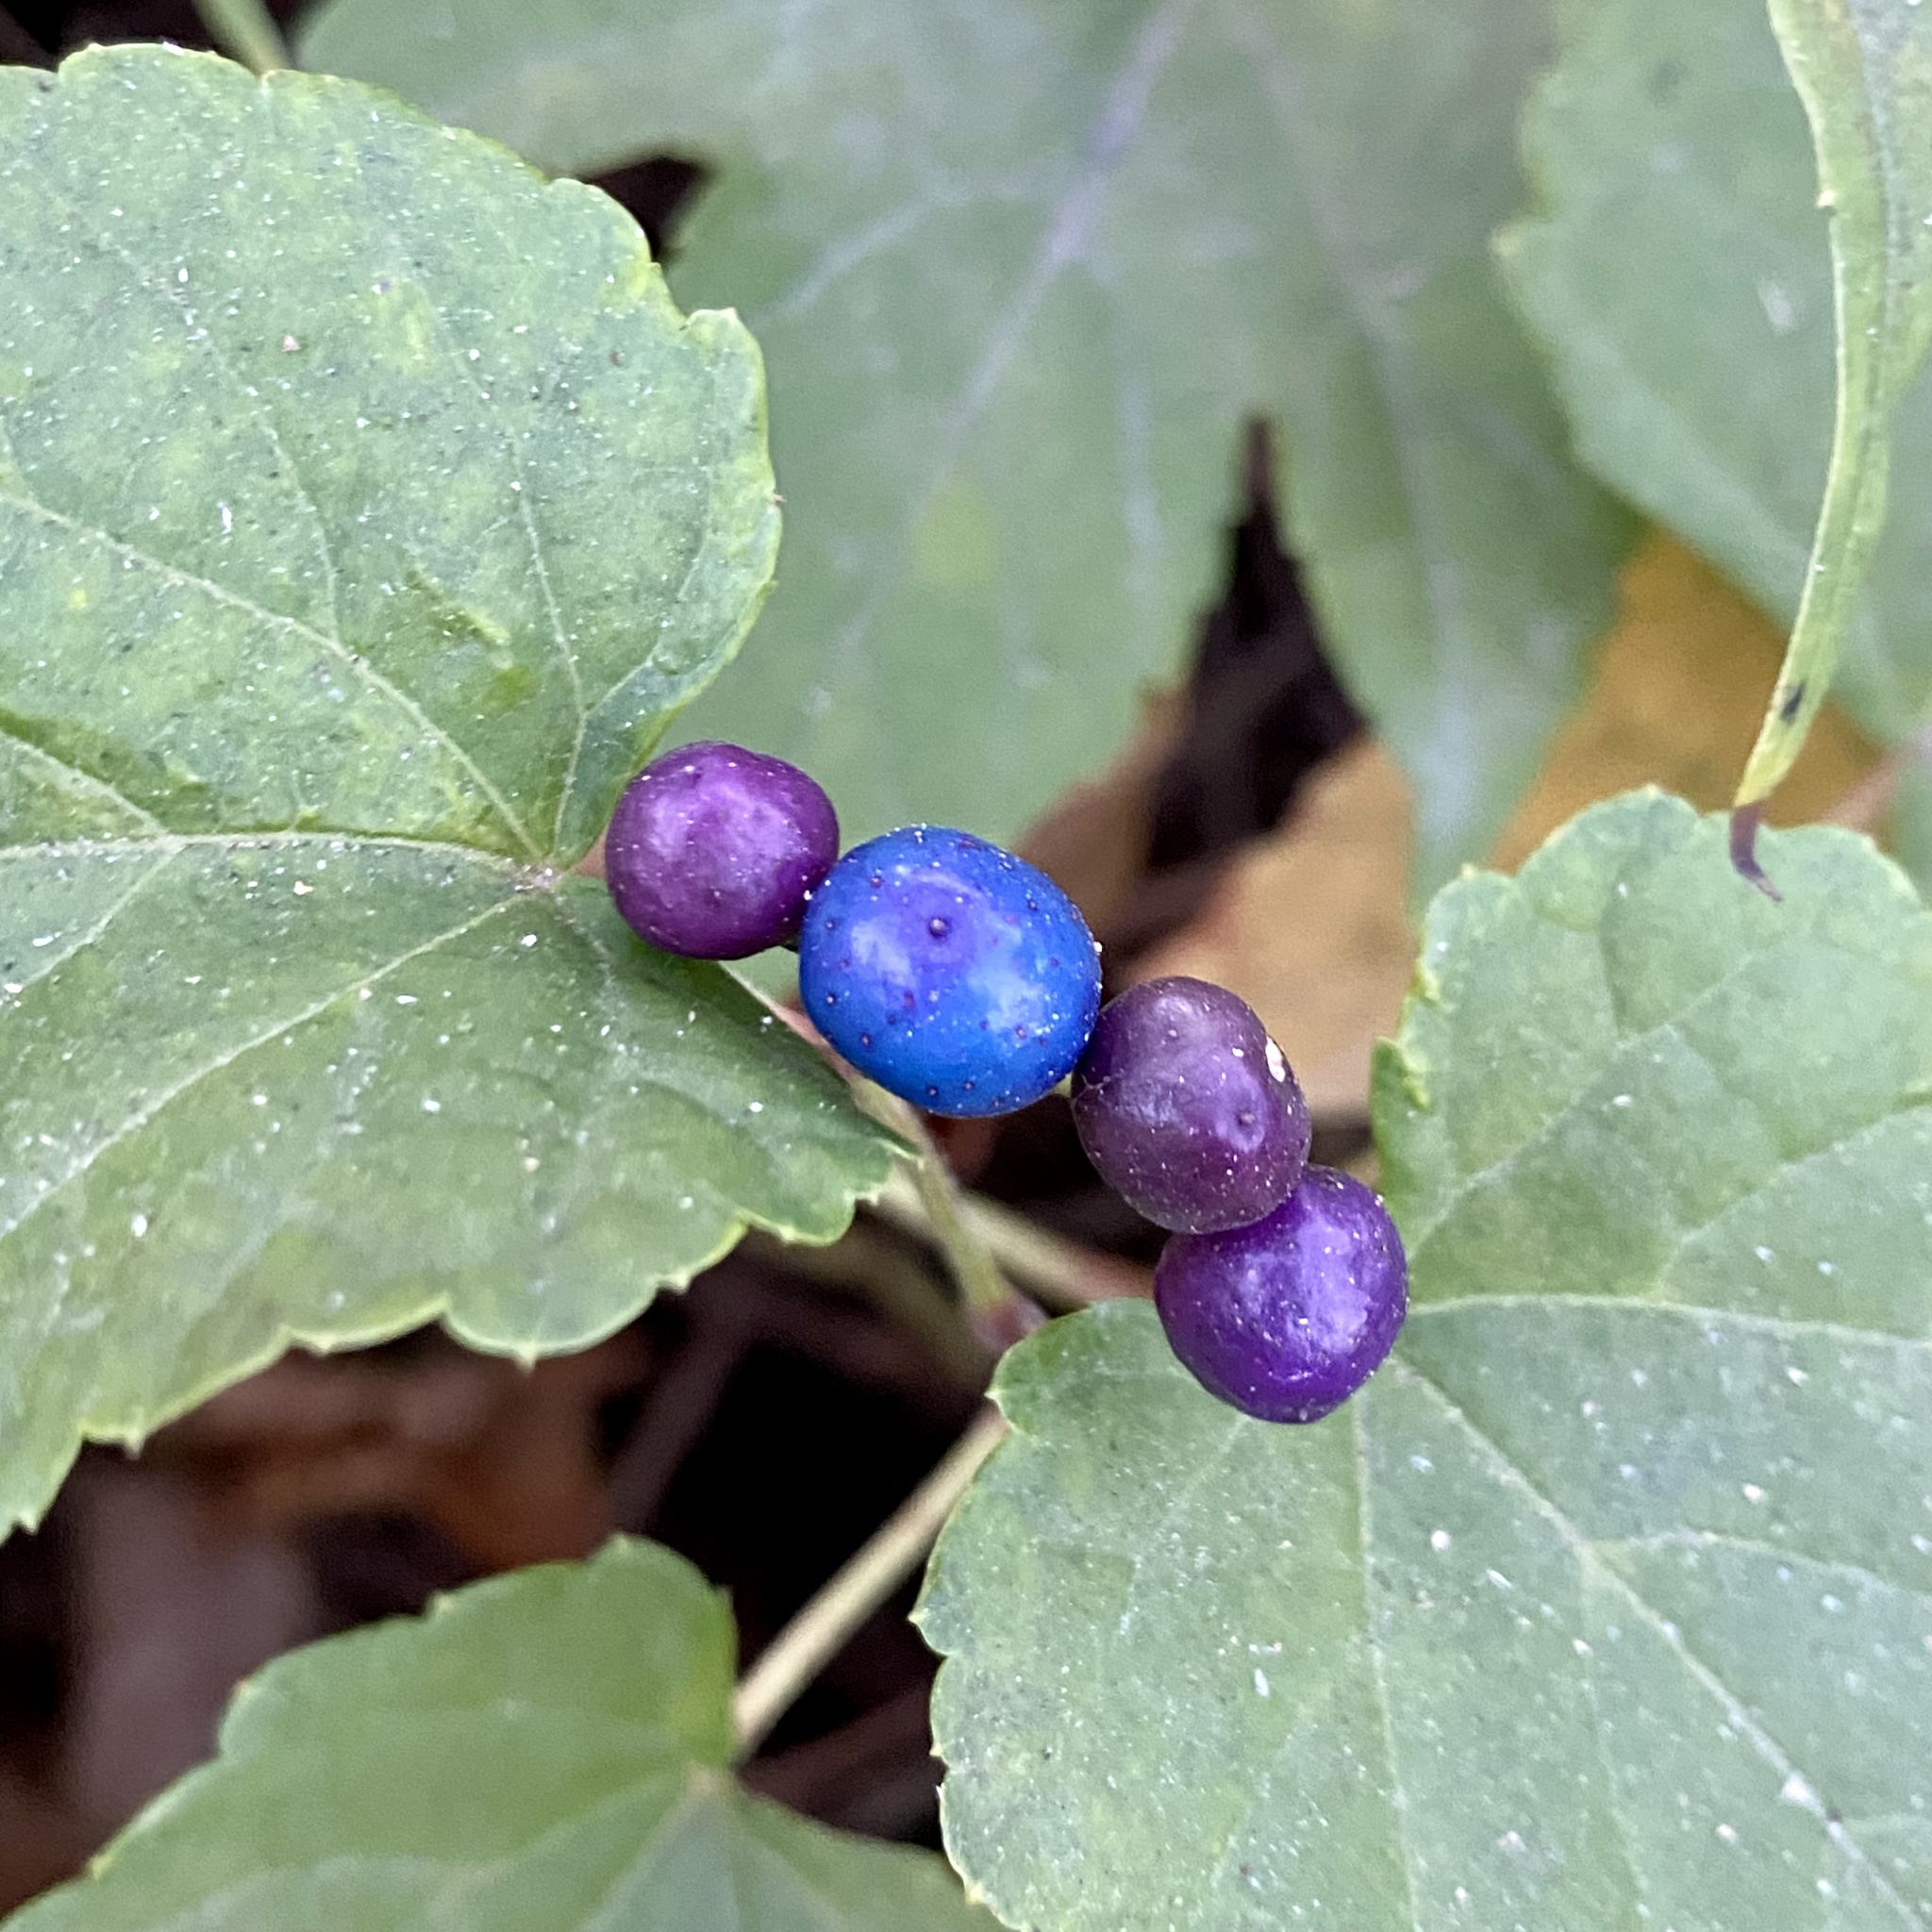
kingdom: Plantae
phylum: Tracheophyta
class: Magnoliopsida
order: Vitales
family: Vitaceae
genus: Ampelopsis
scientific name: Ampelopsis glandulosa
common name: Amur peppervine
